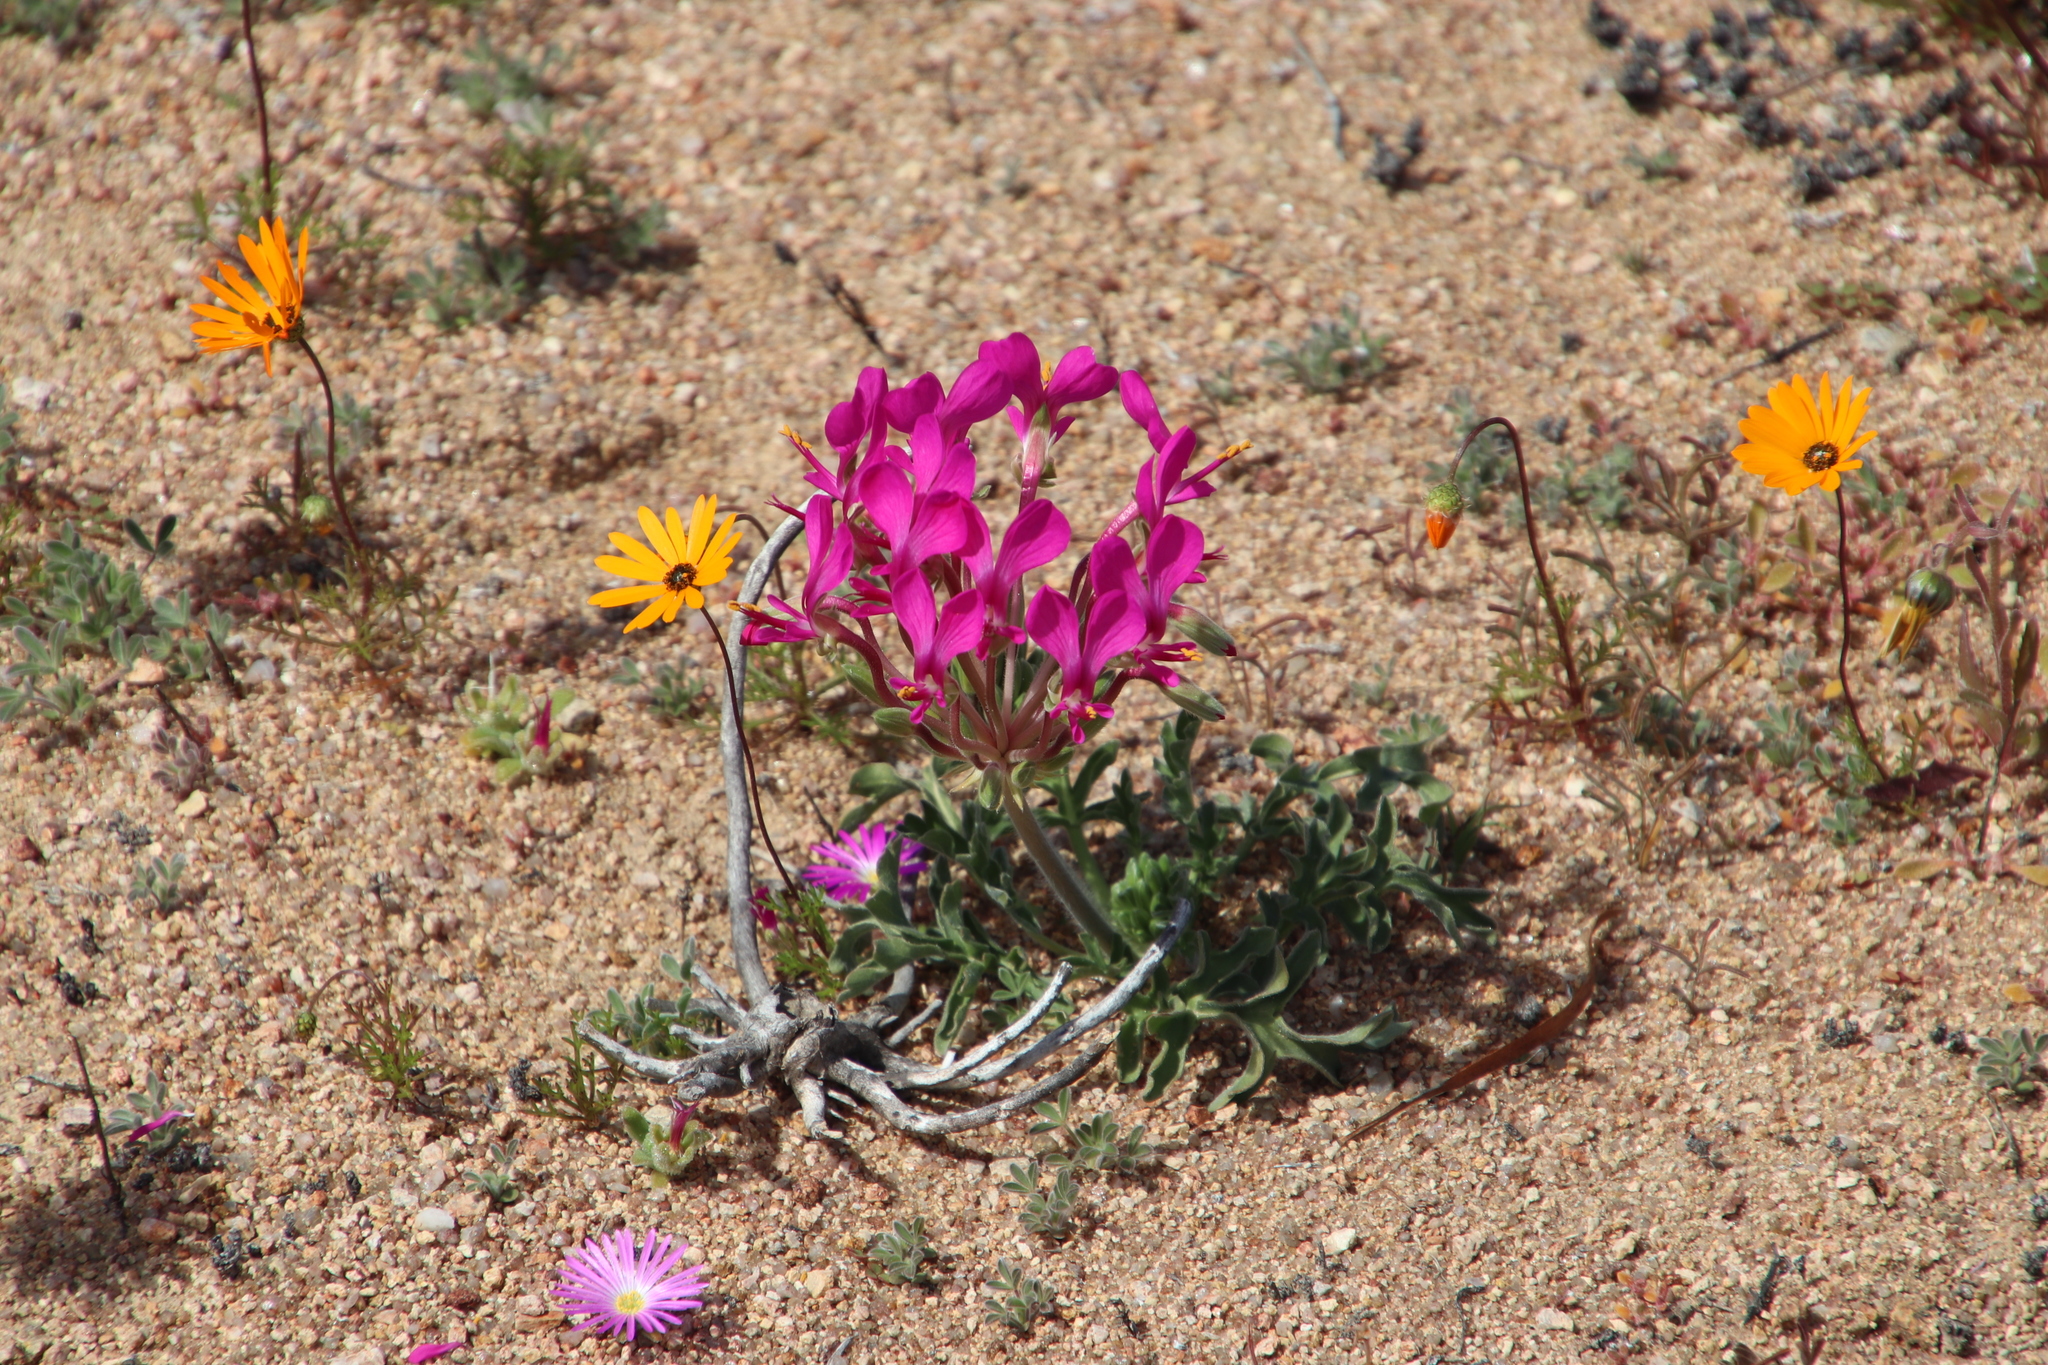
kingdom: Plantae
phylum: Tracheophyta
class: Magnoliopsida
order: Geraniales
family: Geraniaceae
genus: Pelargonium
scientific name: Pelargonium incrassatum
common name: Namaqualand beauty
